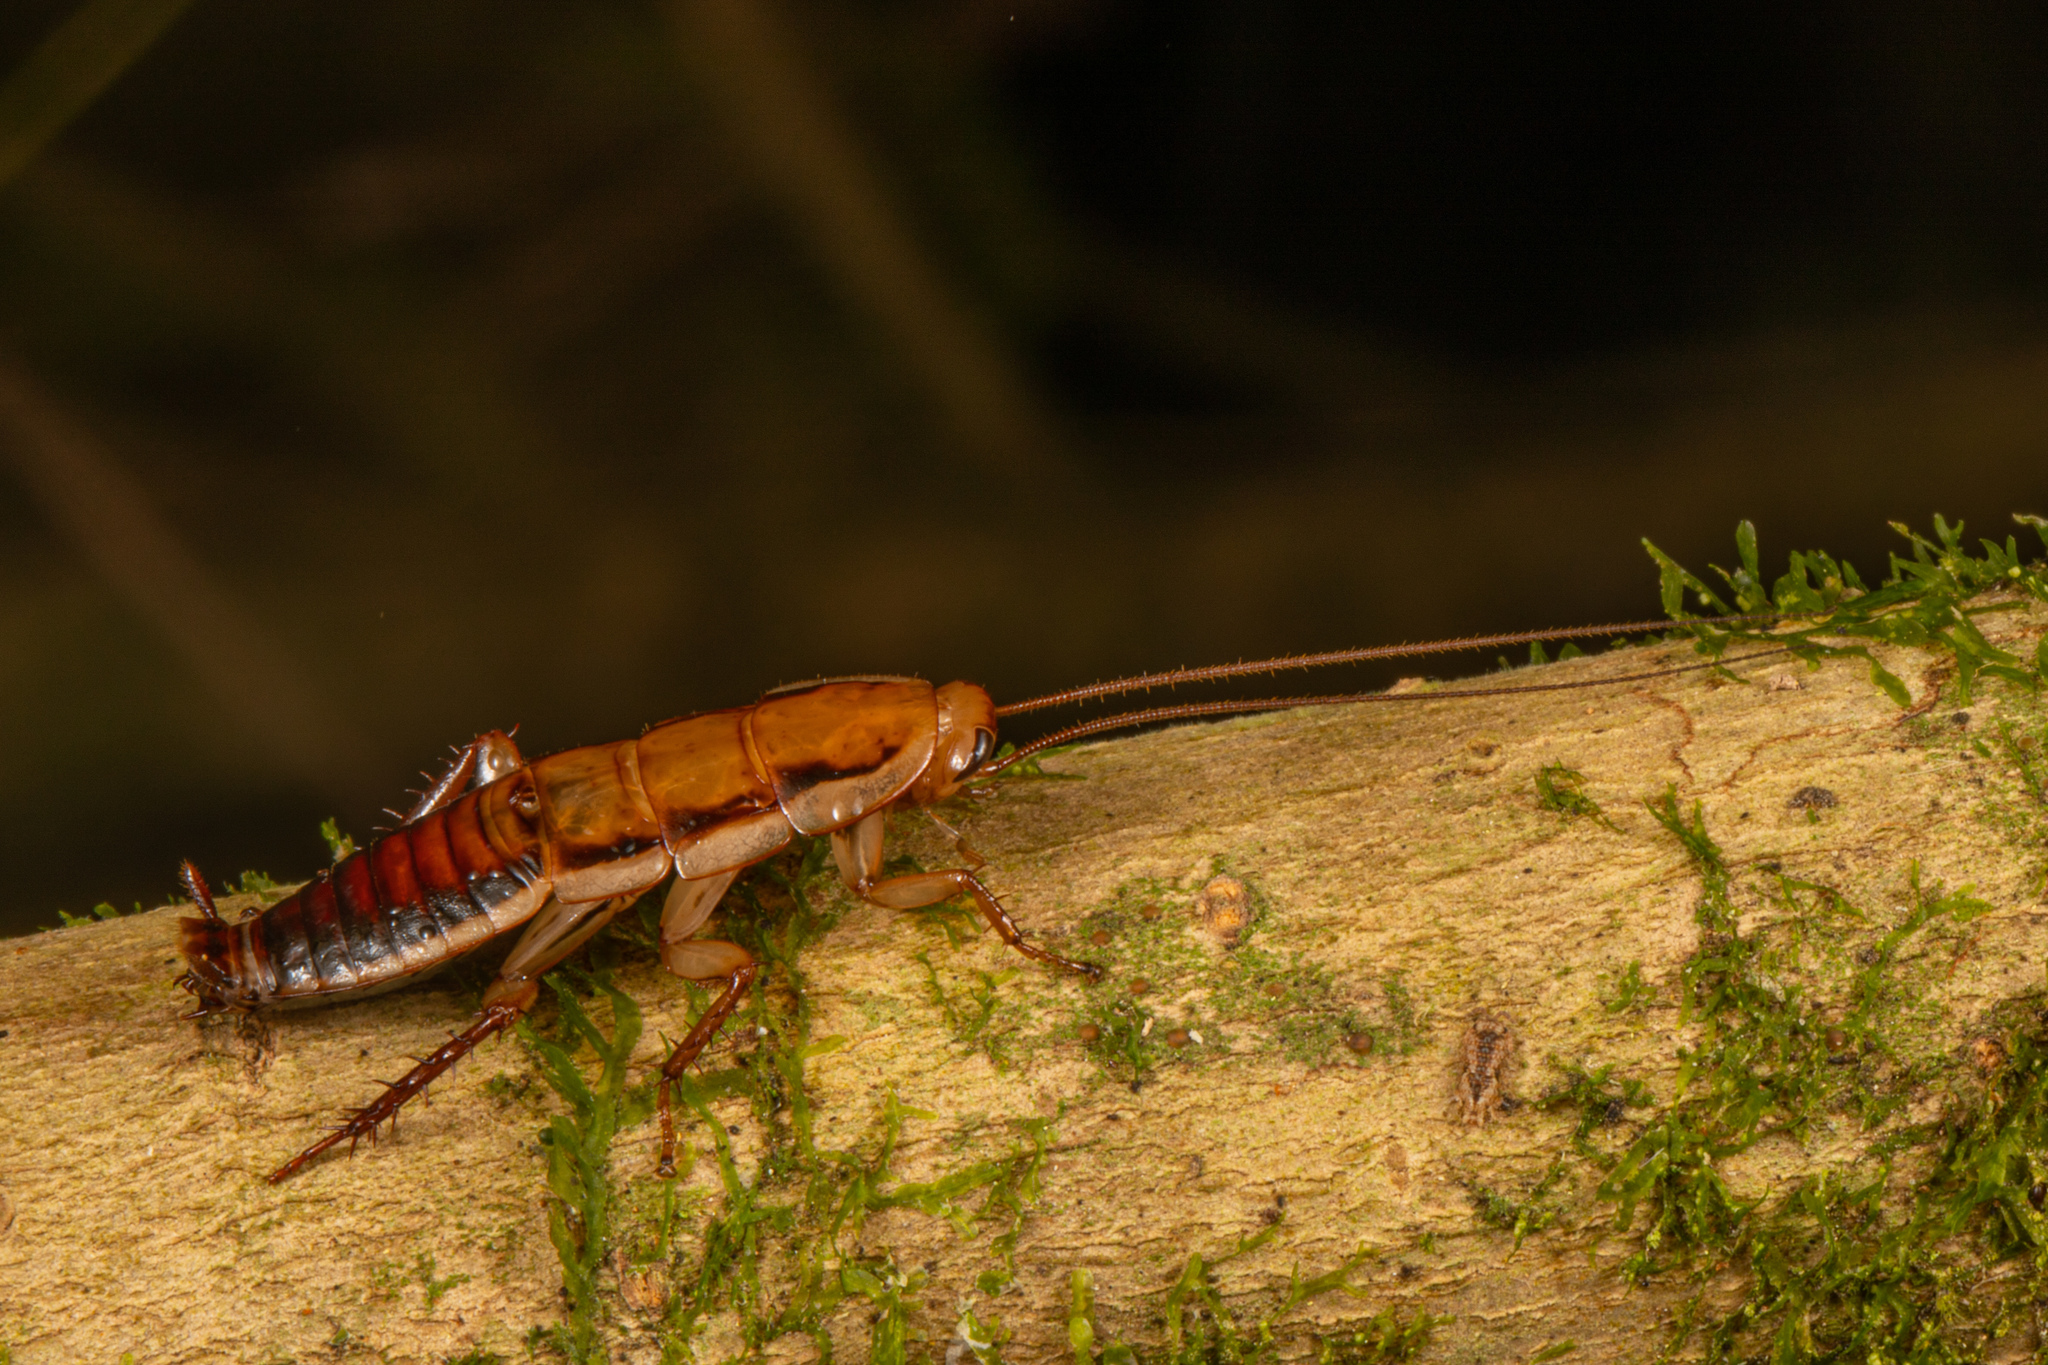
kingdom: Animalia
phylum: Arthropoda
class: Insecta
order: Blattodea
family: Blattidae
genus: Drymaplaneta
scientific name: Drymaplaneta heydeniana
